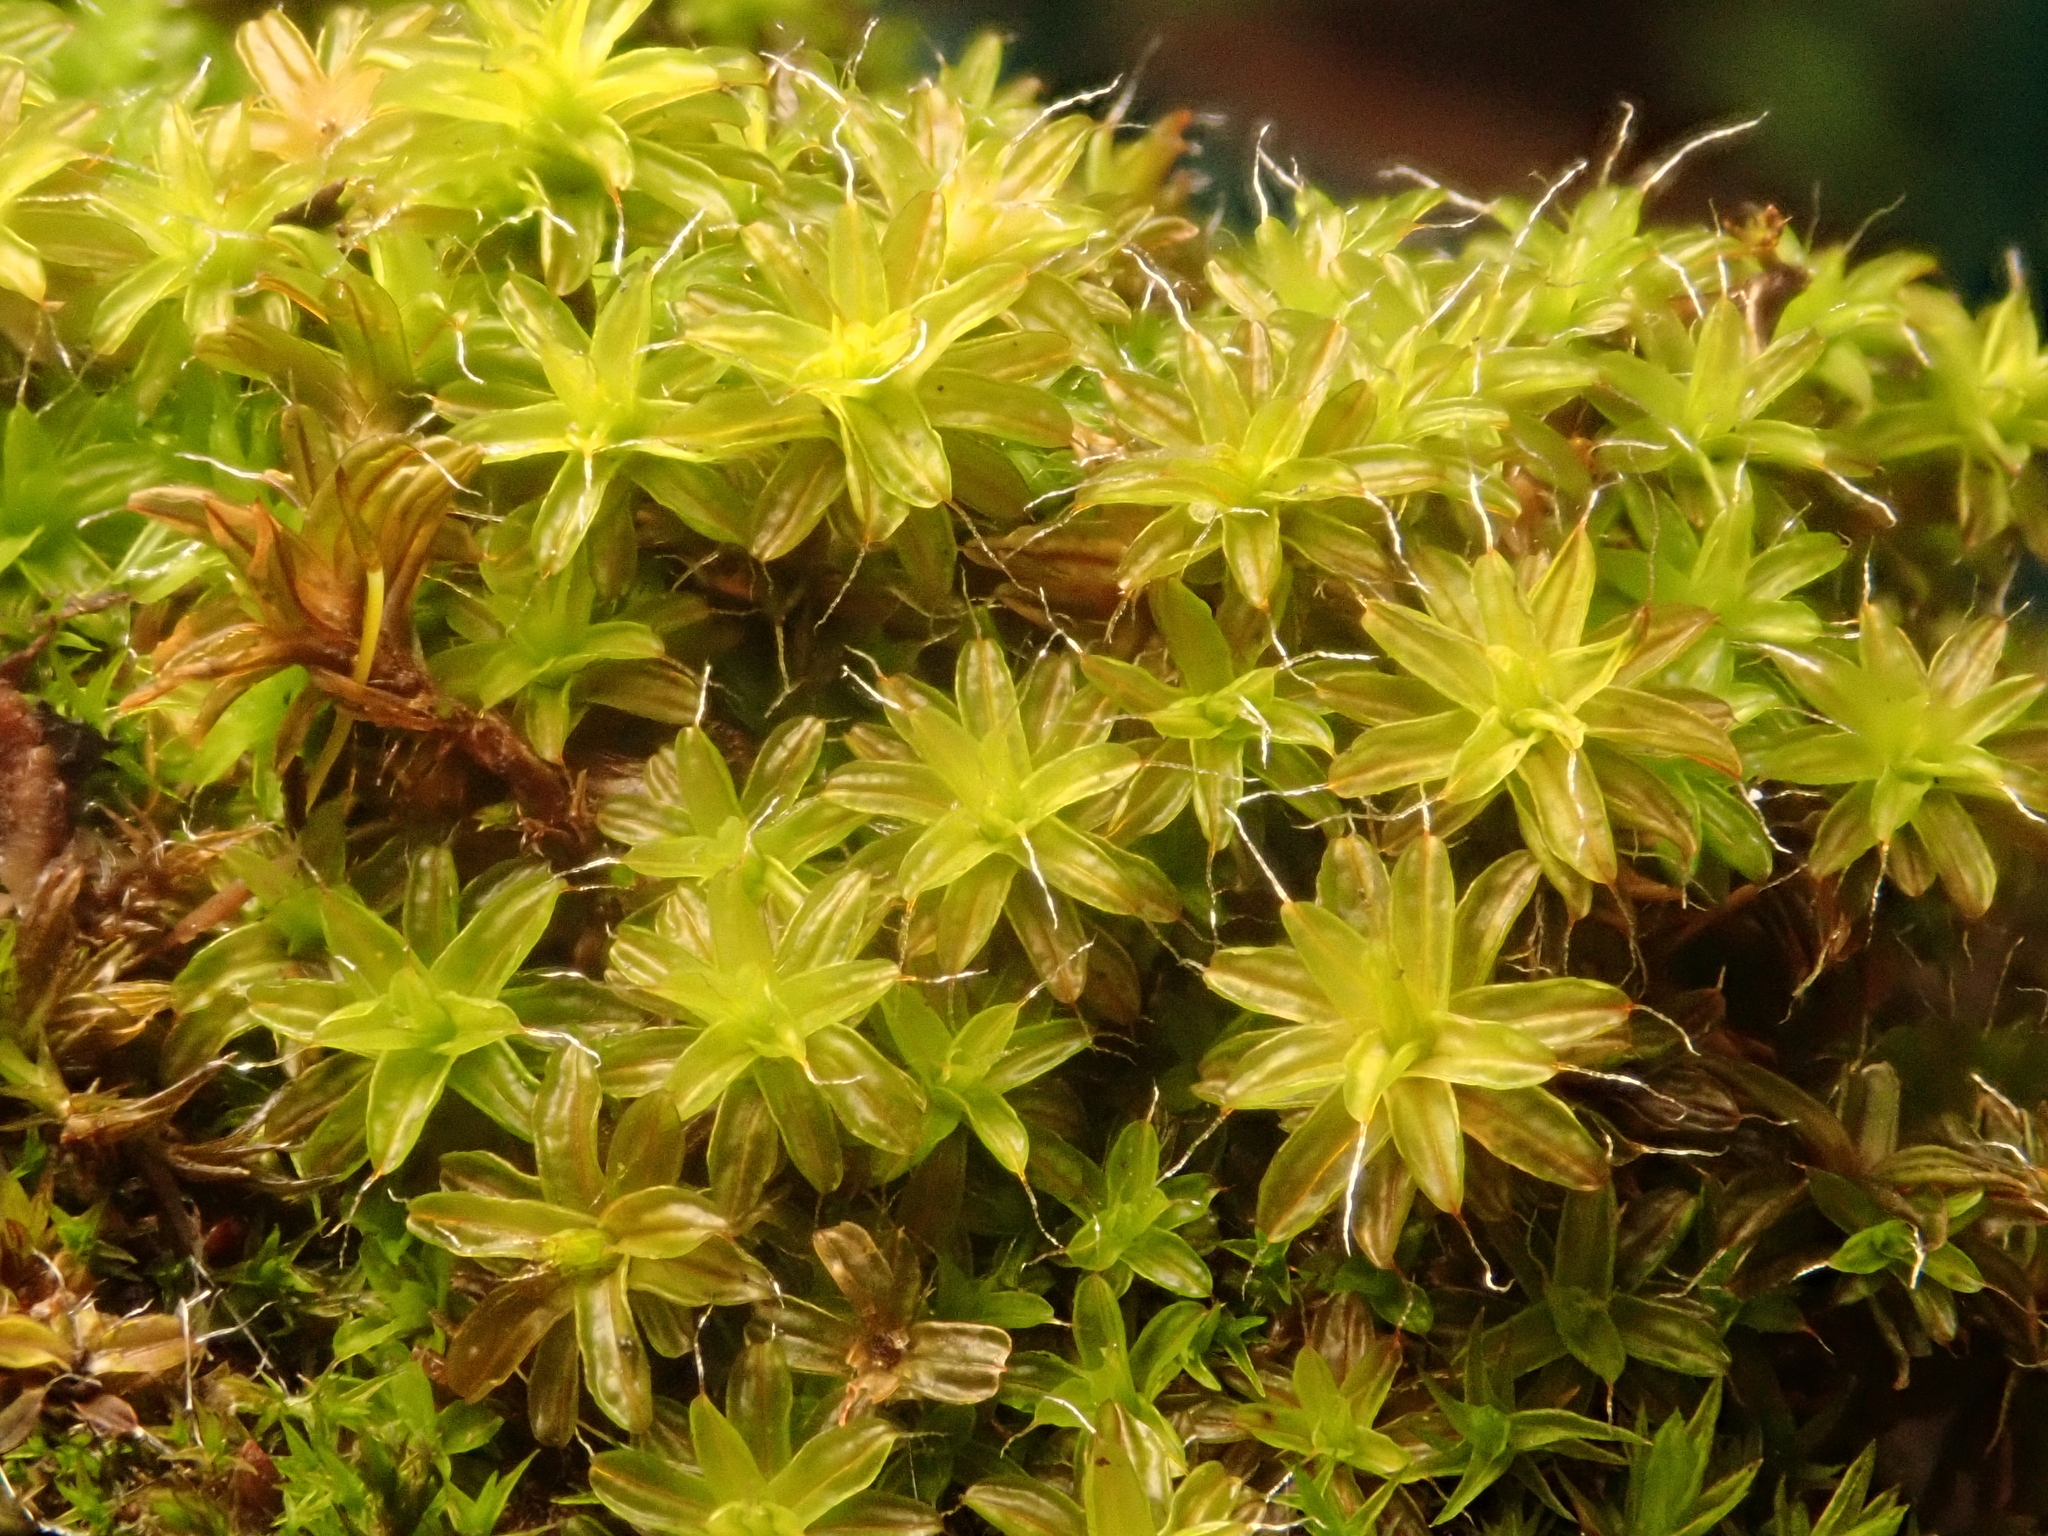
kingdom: Plantae
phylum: Bryophyta
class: Bryopsida
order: Pottiales
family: Pottiaceae
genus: Syntrichia
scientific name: Syntrichia ruralis
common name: Sidewalk screw moss
